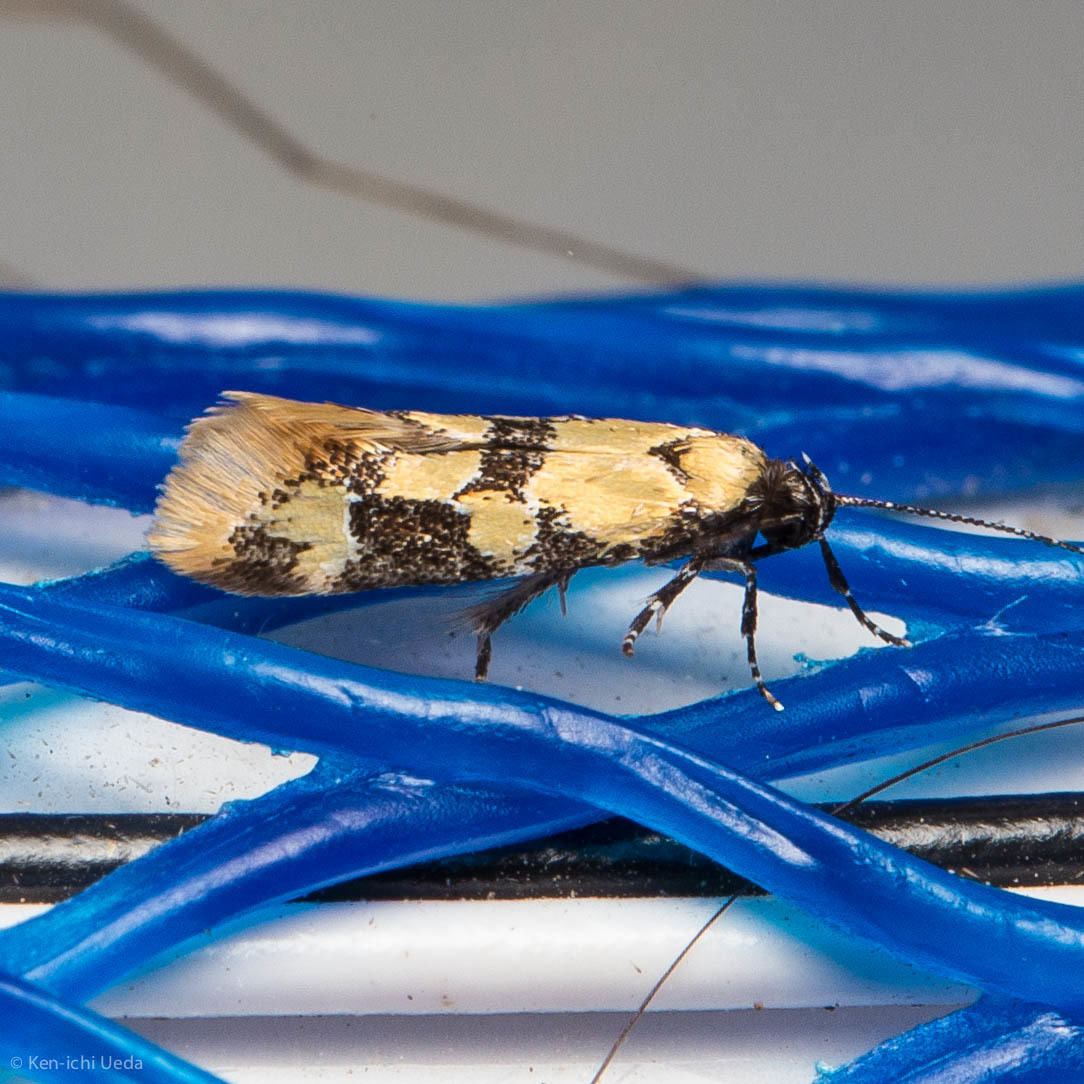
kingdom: Animalia
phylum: Arthropoda
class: Insecta
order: Lepidoptera
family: Oecophoridae
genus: Decantha
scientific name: Decantha stonda
